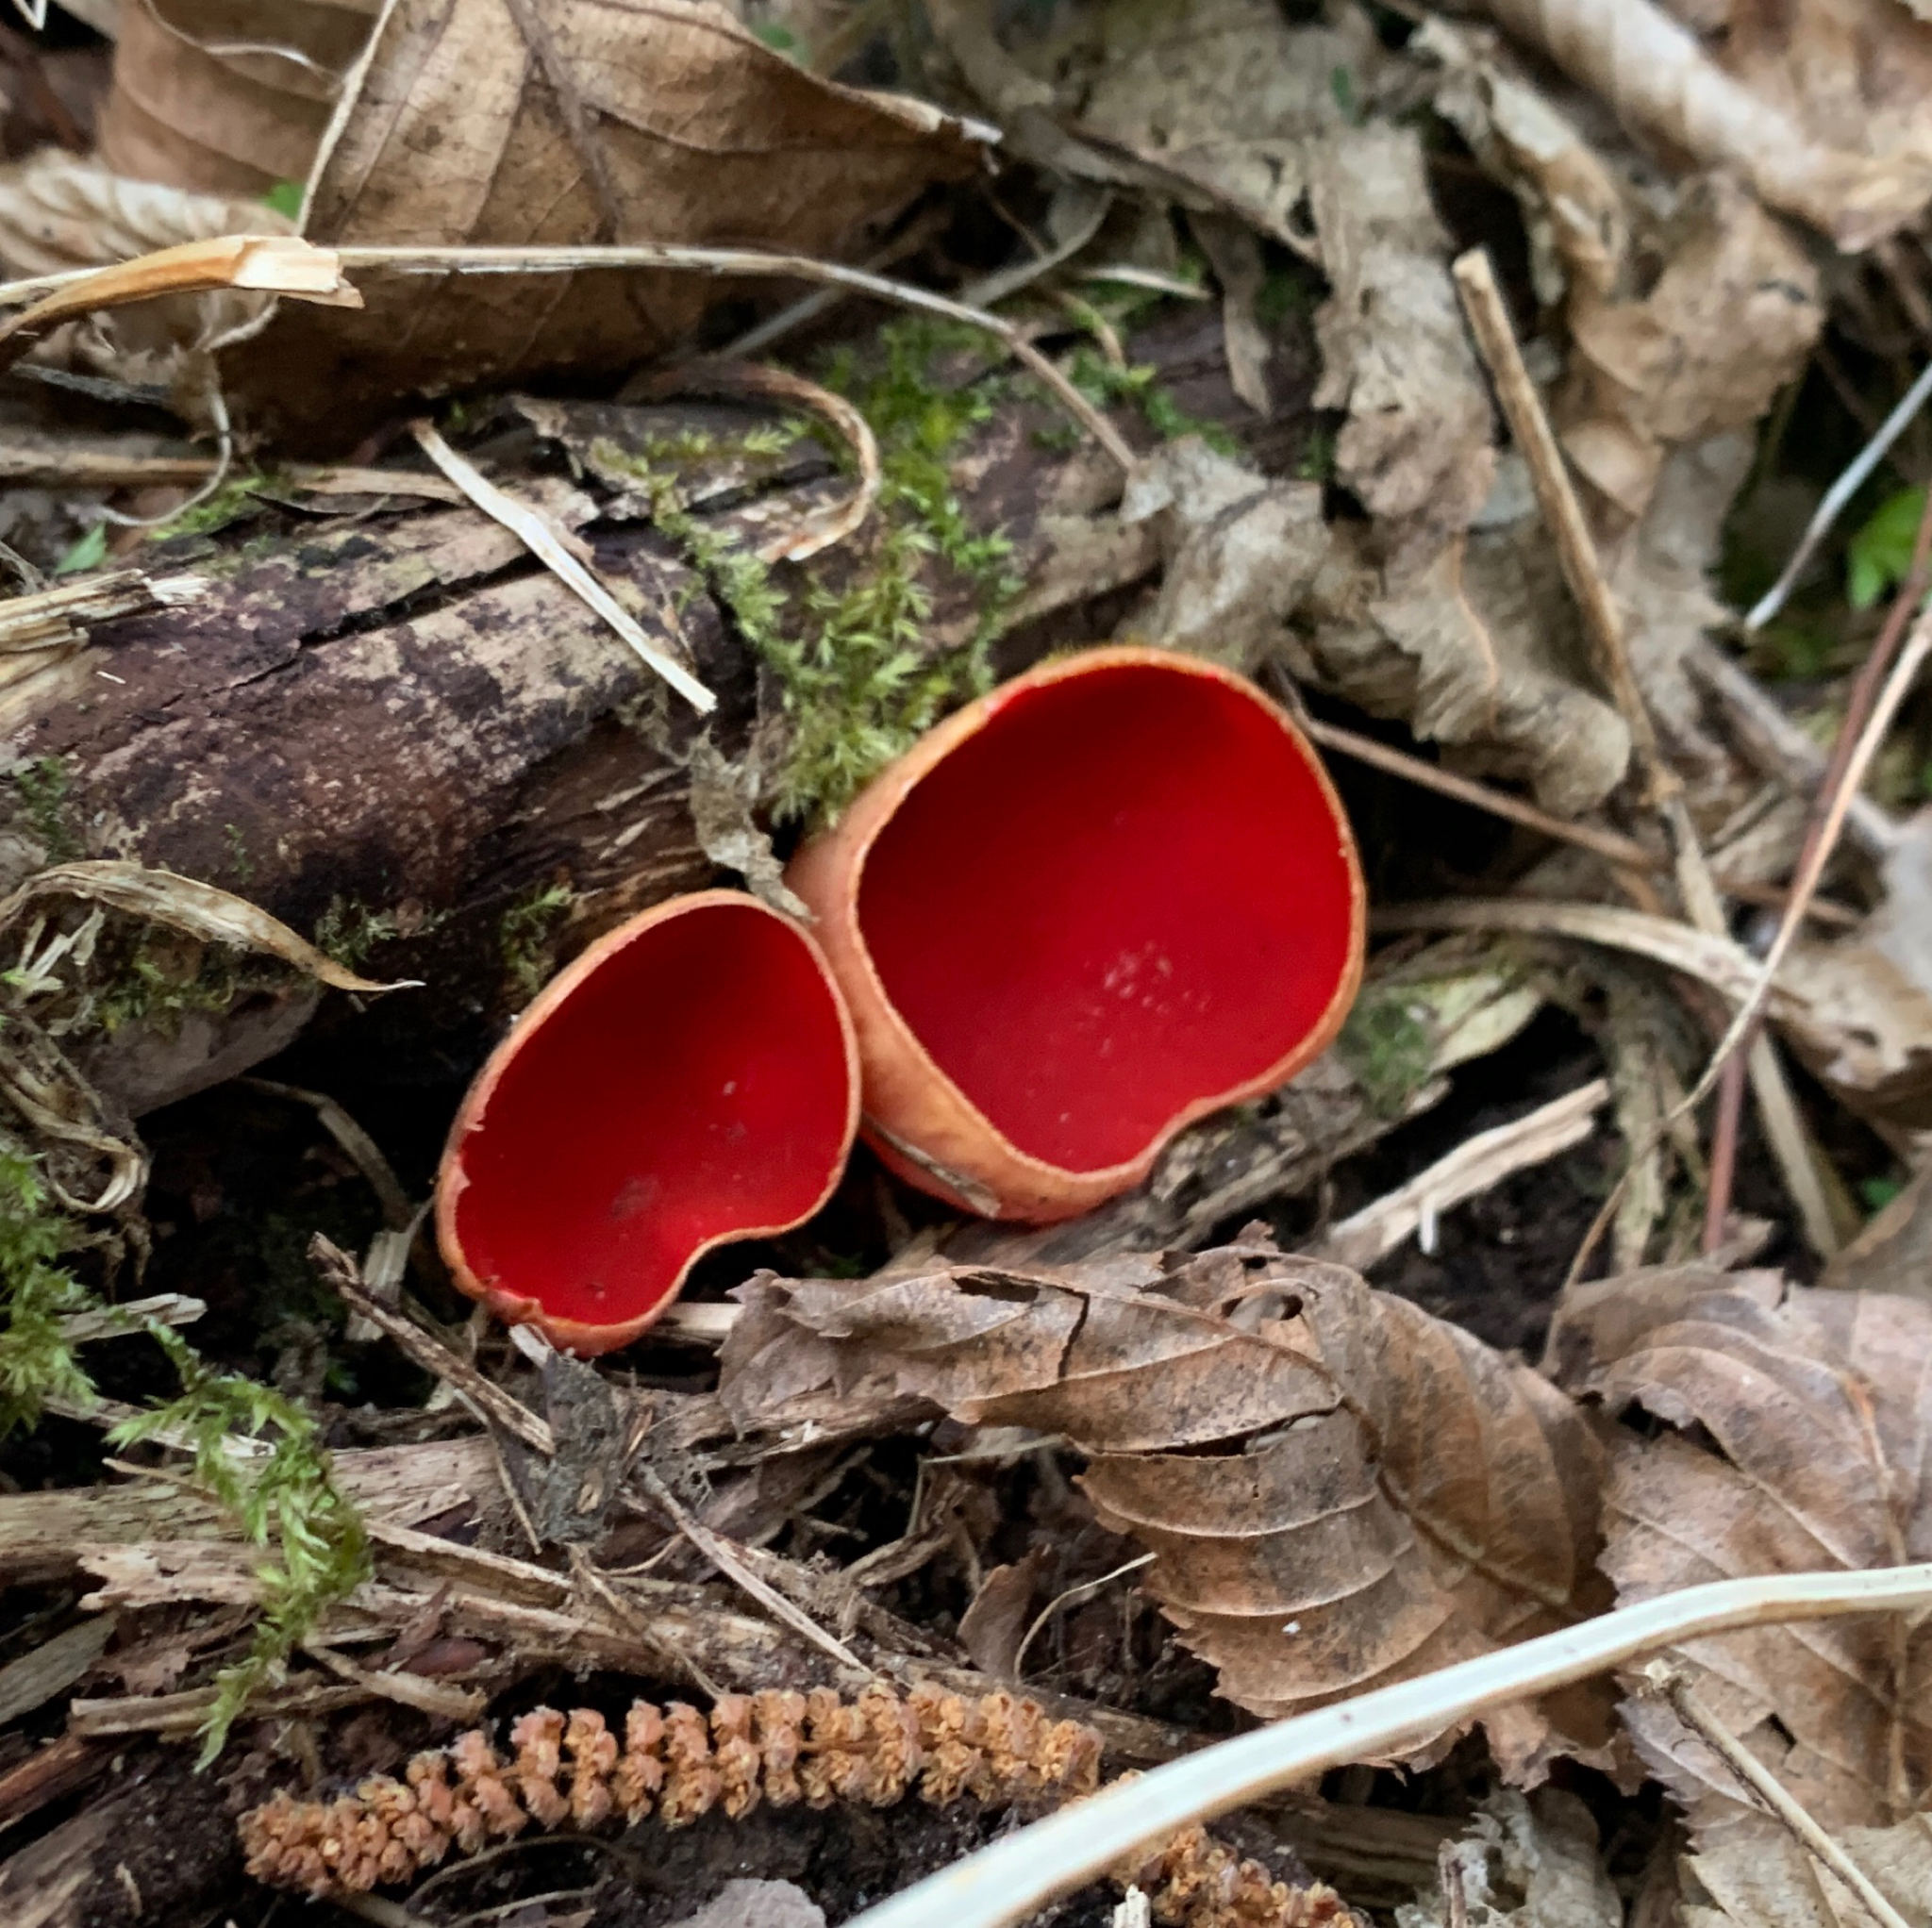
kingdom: Fungi
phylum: Ascomycota
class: Pezizomycetes
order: Pezizales
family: Sarcoscyphaceae
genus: Sarcoscypha
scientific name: Sarcoscypha austriaca
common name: Scarlet elfcup
